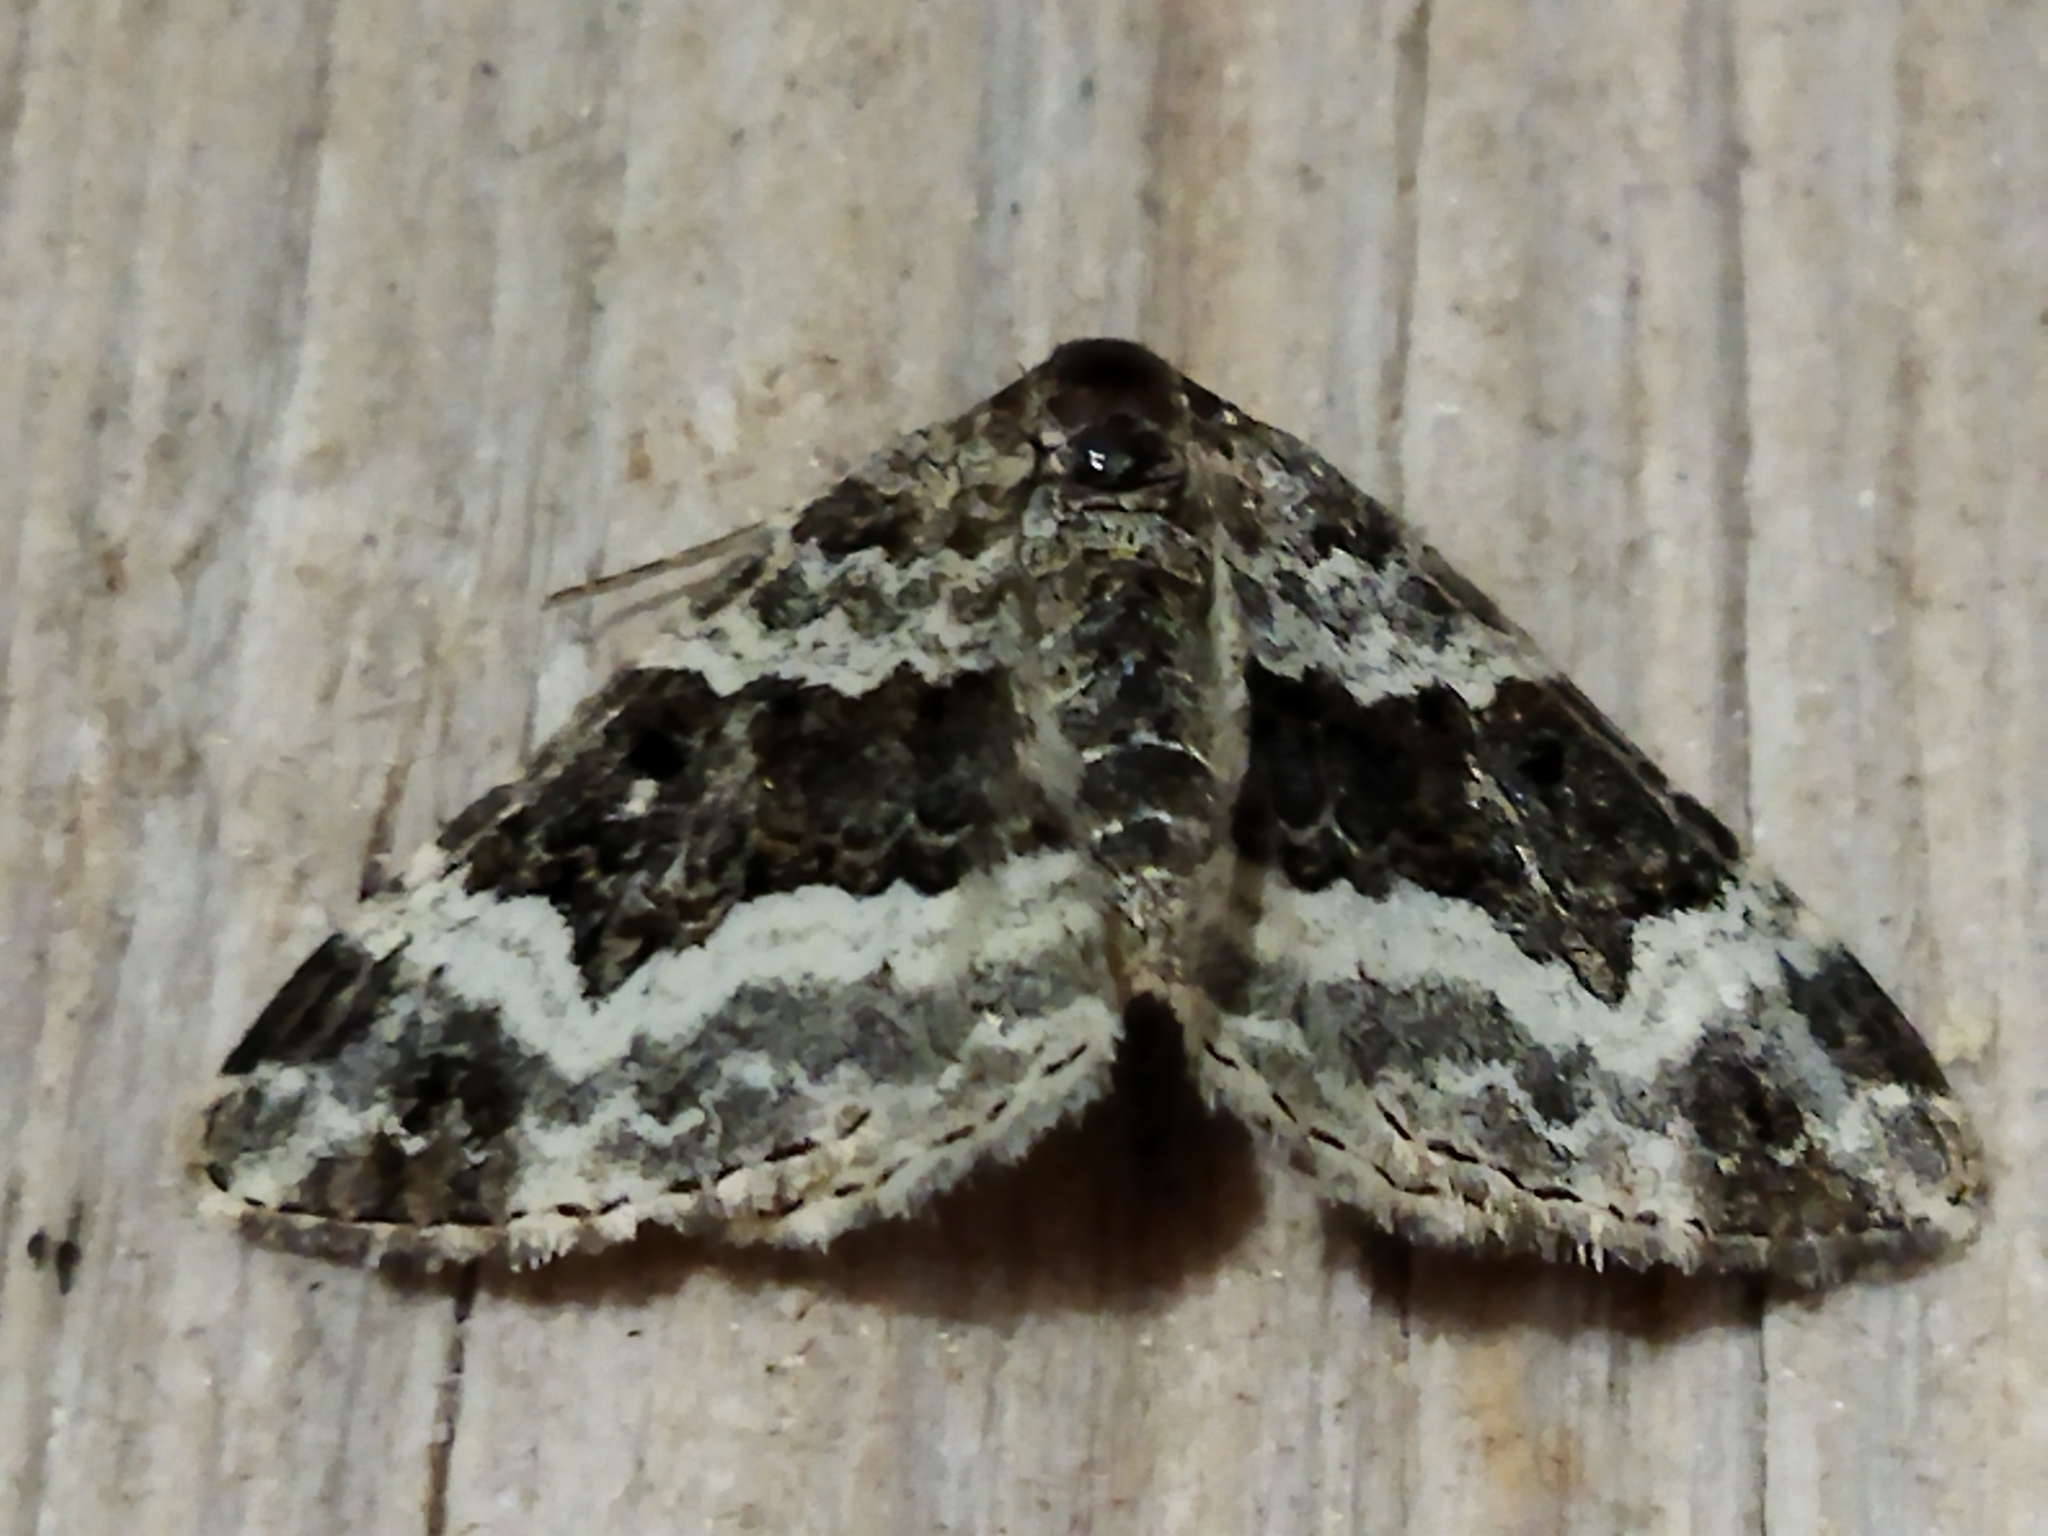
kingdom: Animalia
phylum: Arthropoda
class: Insecta
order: Lepidoptera
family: Geometridae
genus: Epirrhoe
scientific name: Epirrhoe alternata
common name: Common carpet
